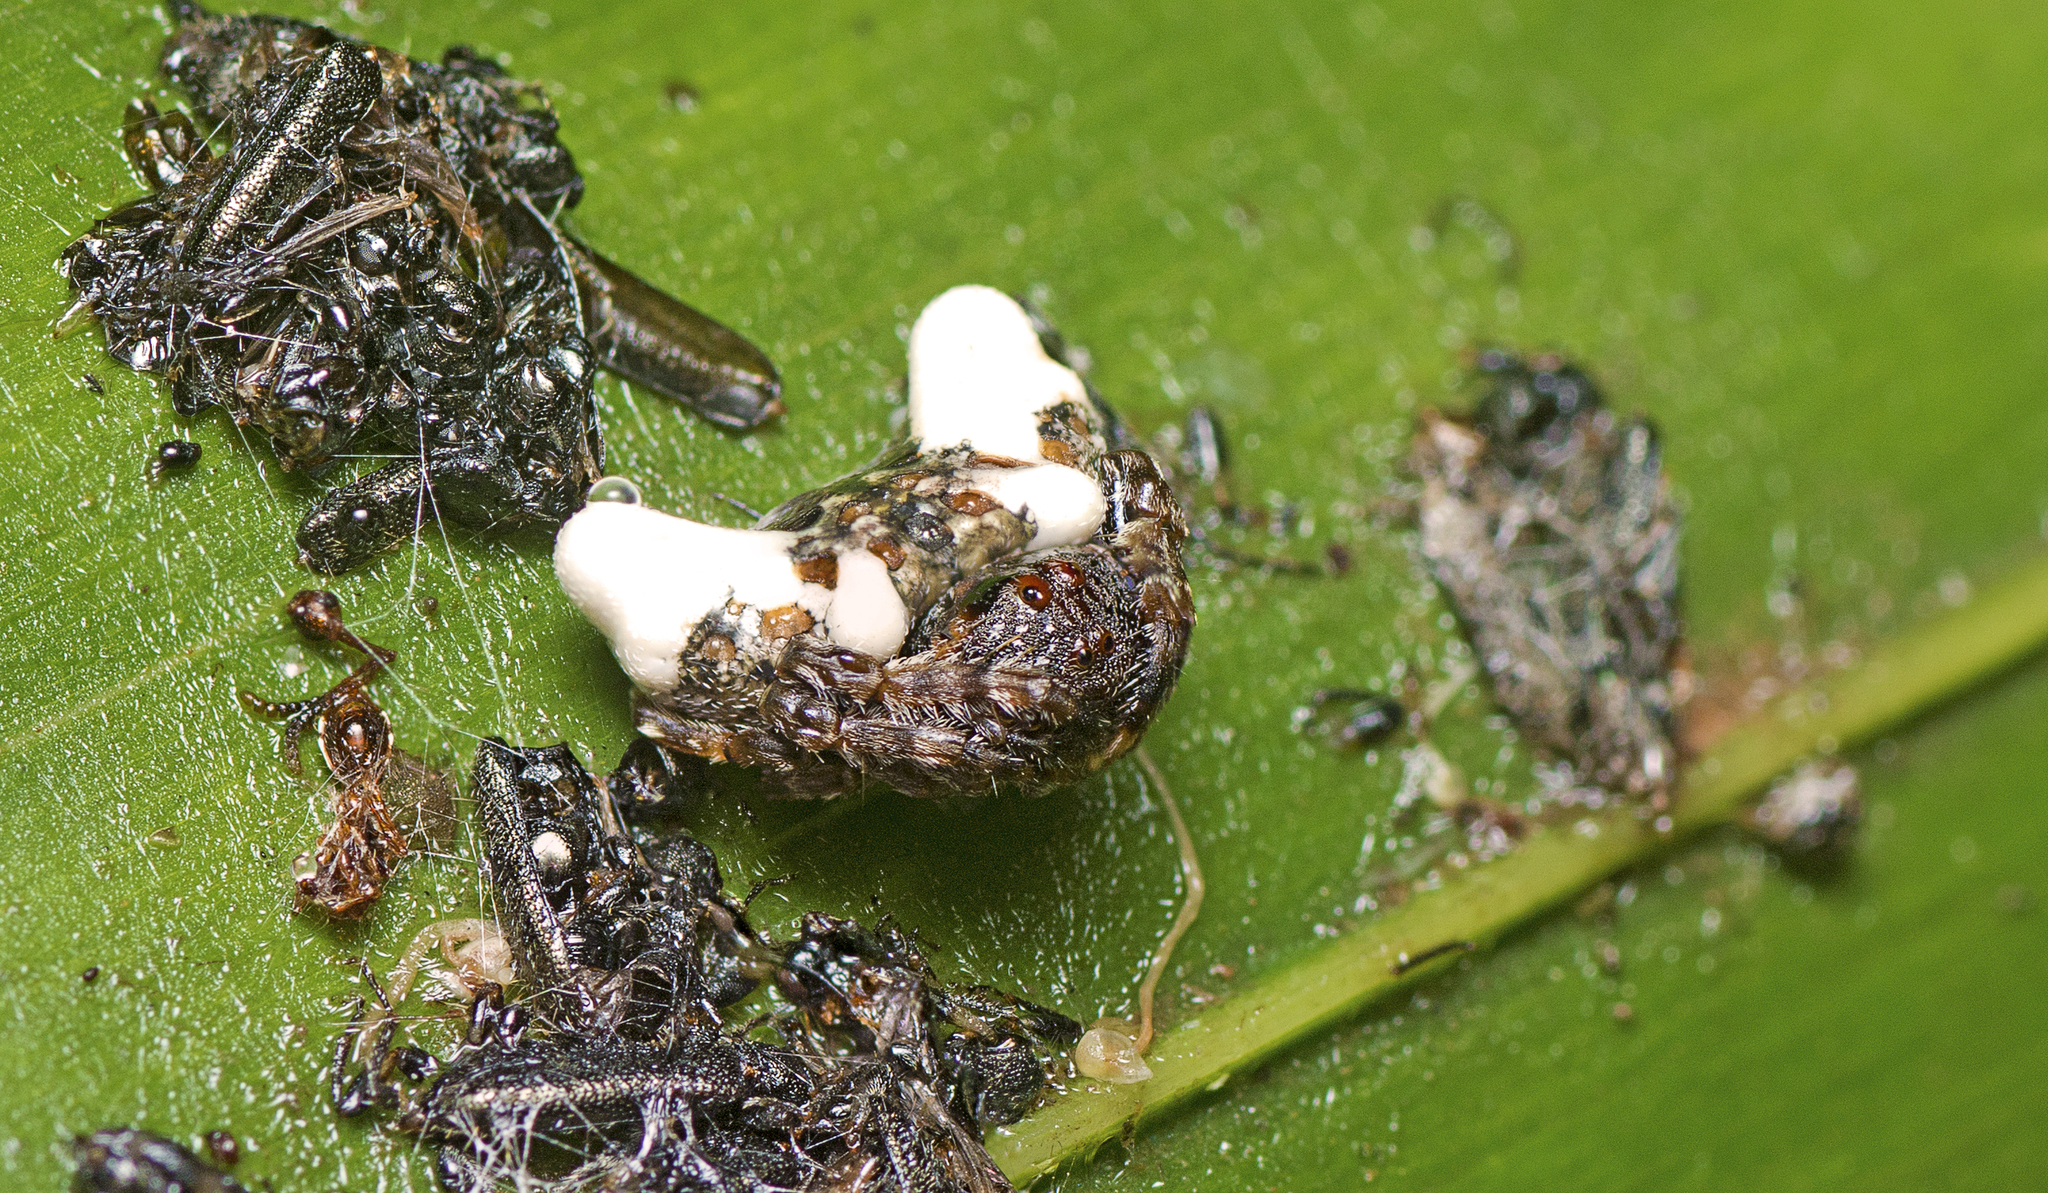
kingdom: Animalia
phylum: Arthropoda
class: Arachnida
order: Araneae
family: Arkyidae
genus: Arkys
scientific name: Arkys curtulus
